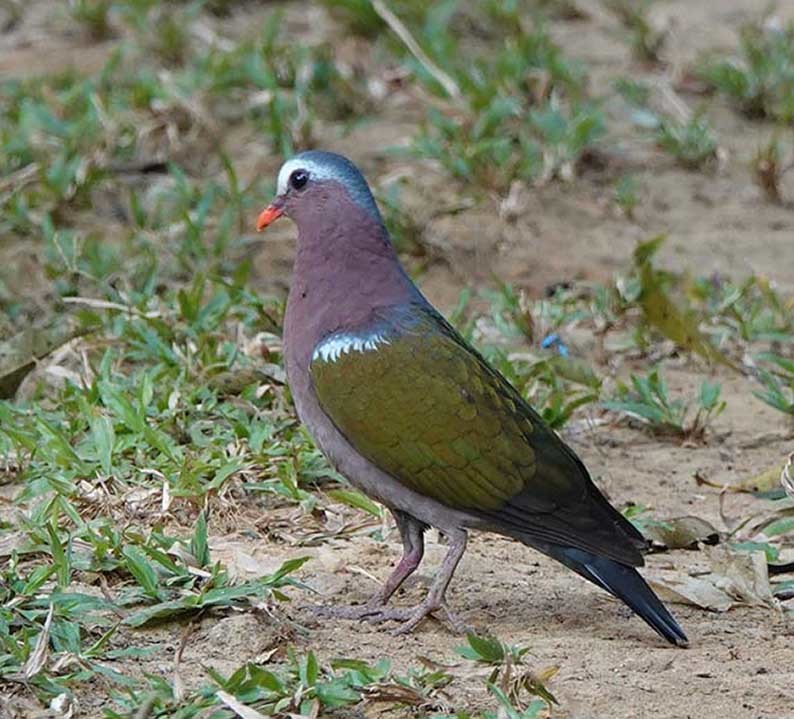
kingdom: Animalia
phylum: Chordata
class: Aves
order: Columbiformes
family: Columbidae
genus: Chalcophaps
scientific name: Chalcophaps indica
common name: Common emerald dove
